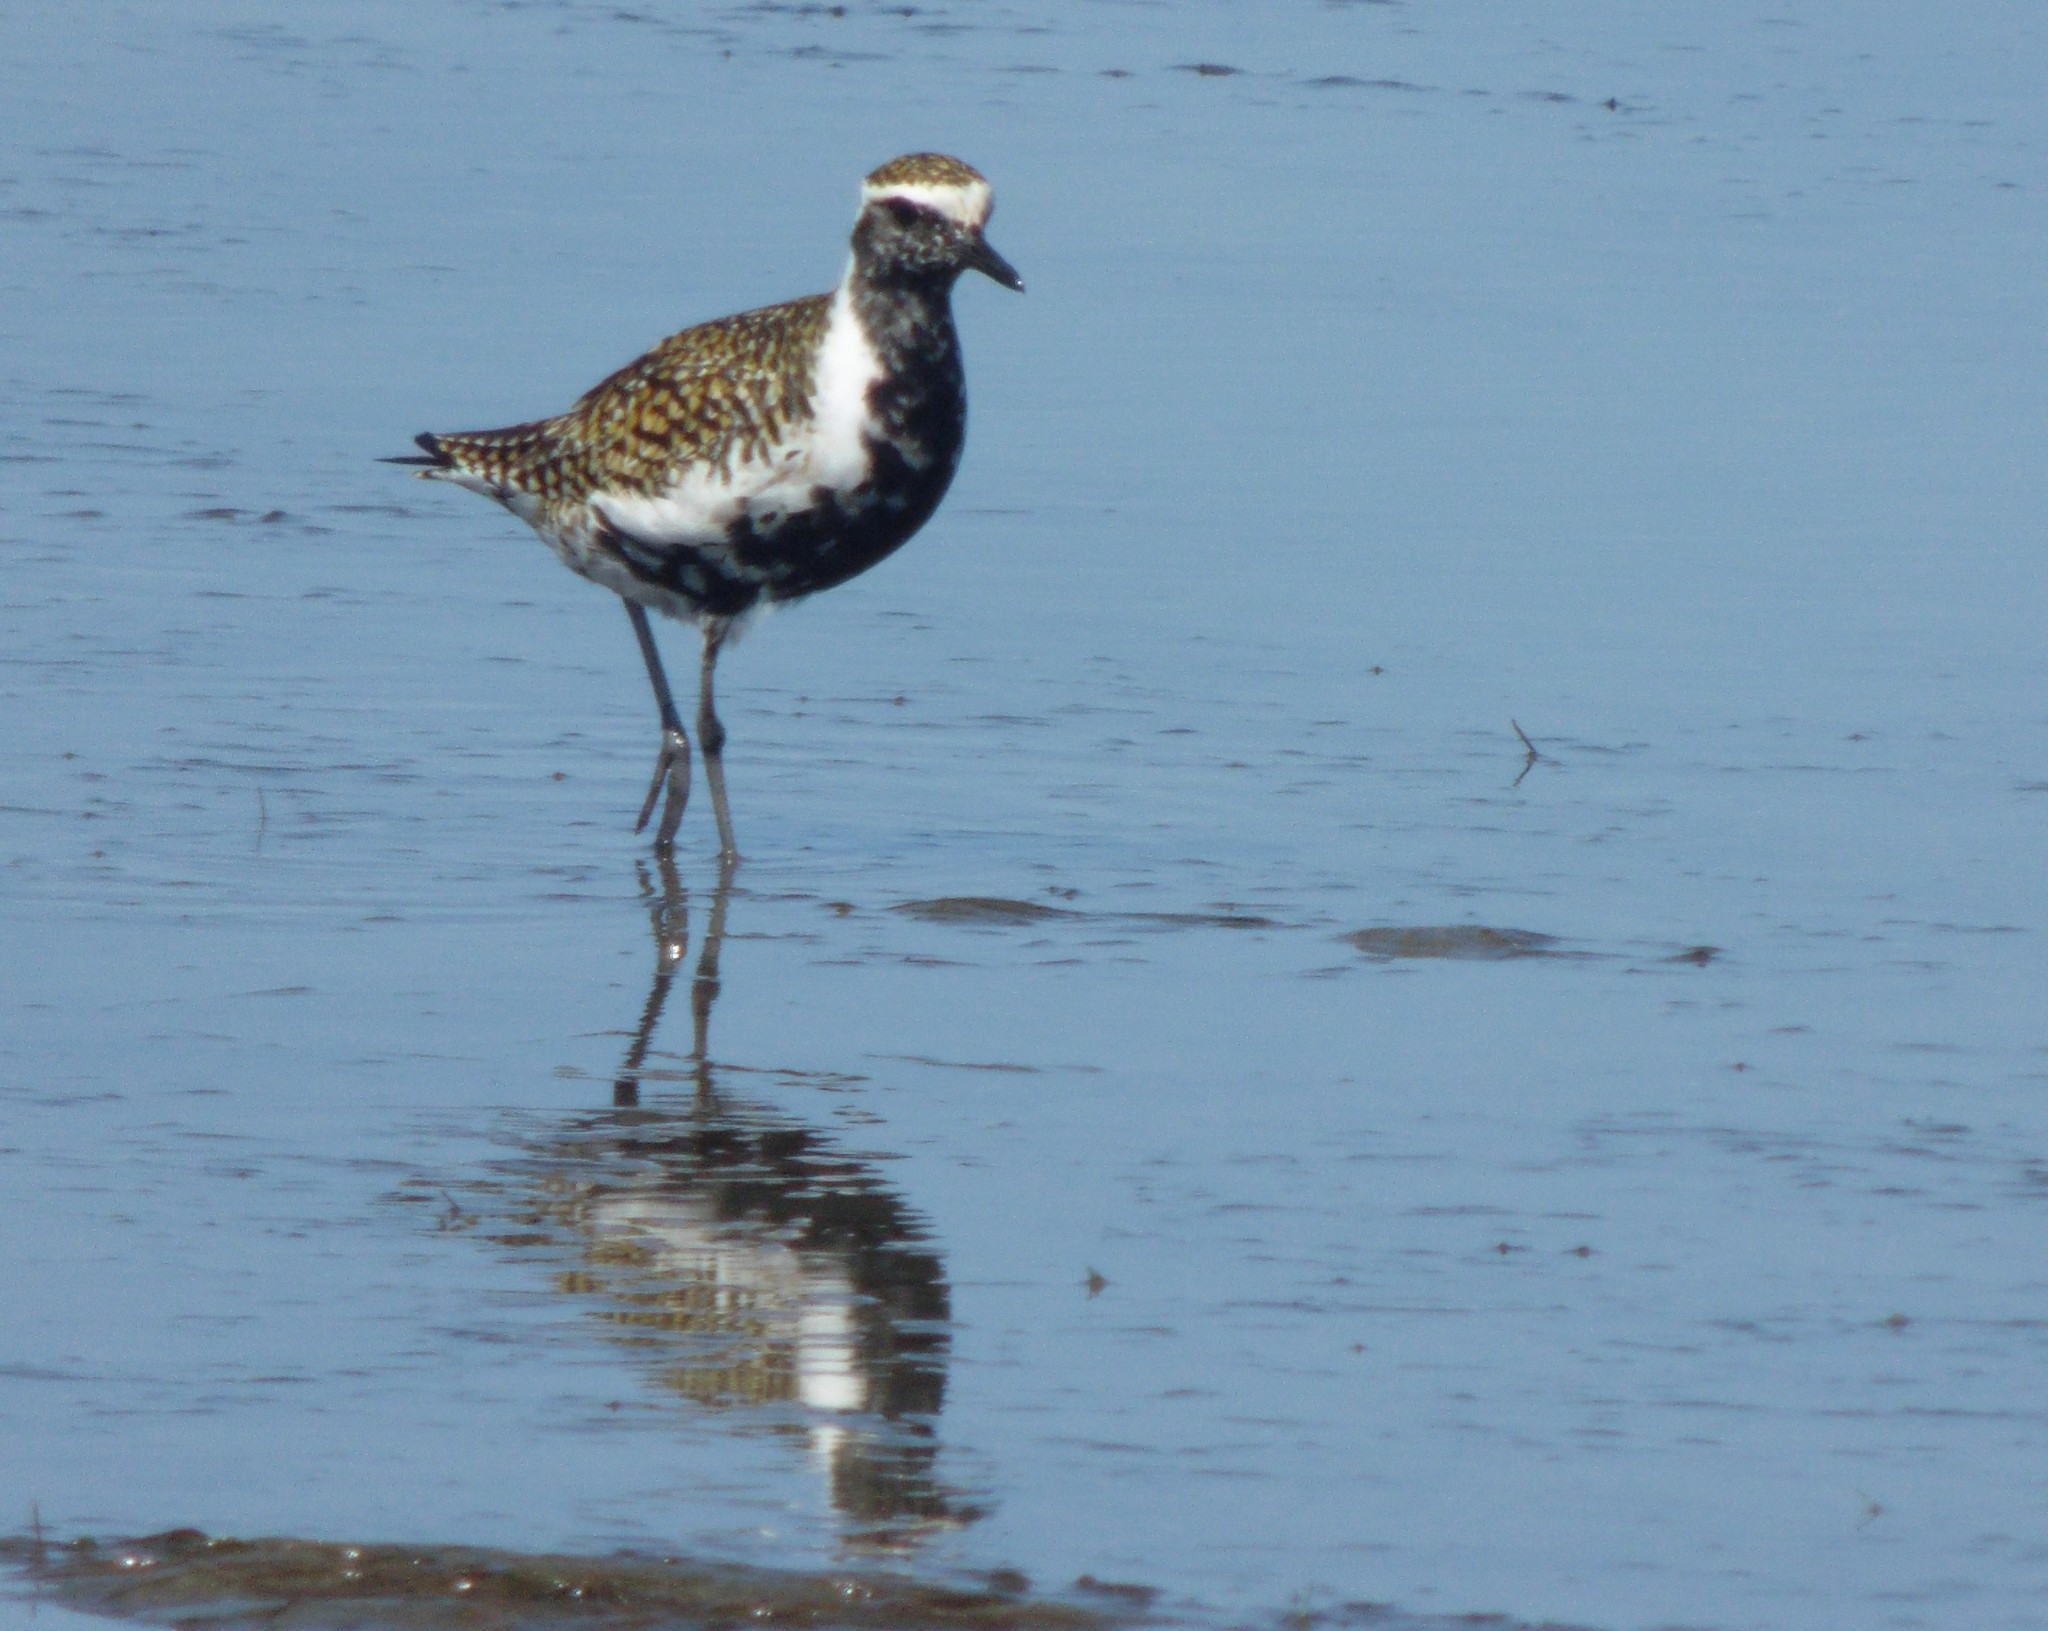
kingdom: Animalia
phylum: Chordata
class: Aves
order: Charadriiformes
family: Charadriidae
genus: Pluvialis
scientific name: Pluvialis fulva
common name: Pacific golden plover
